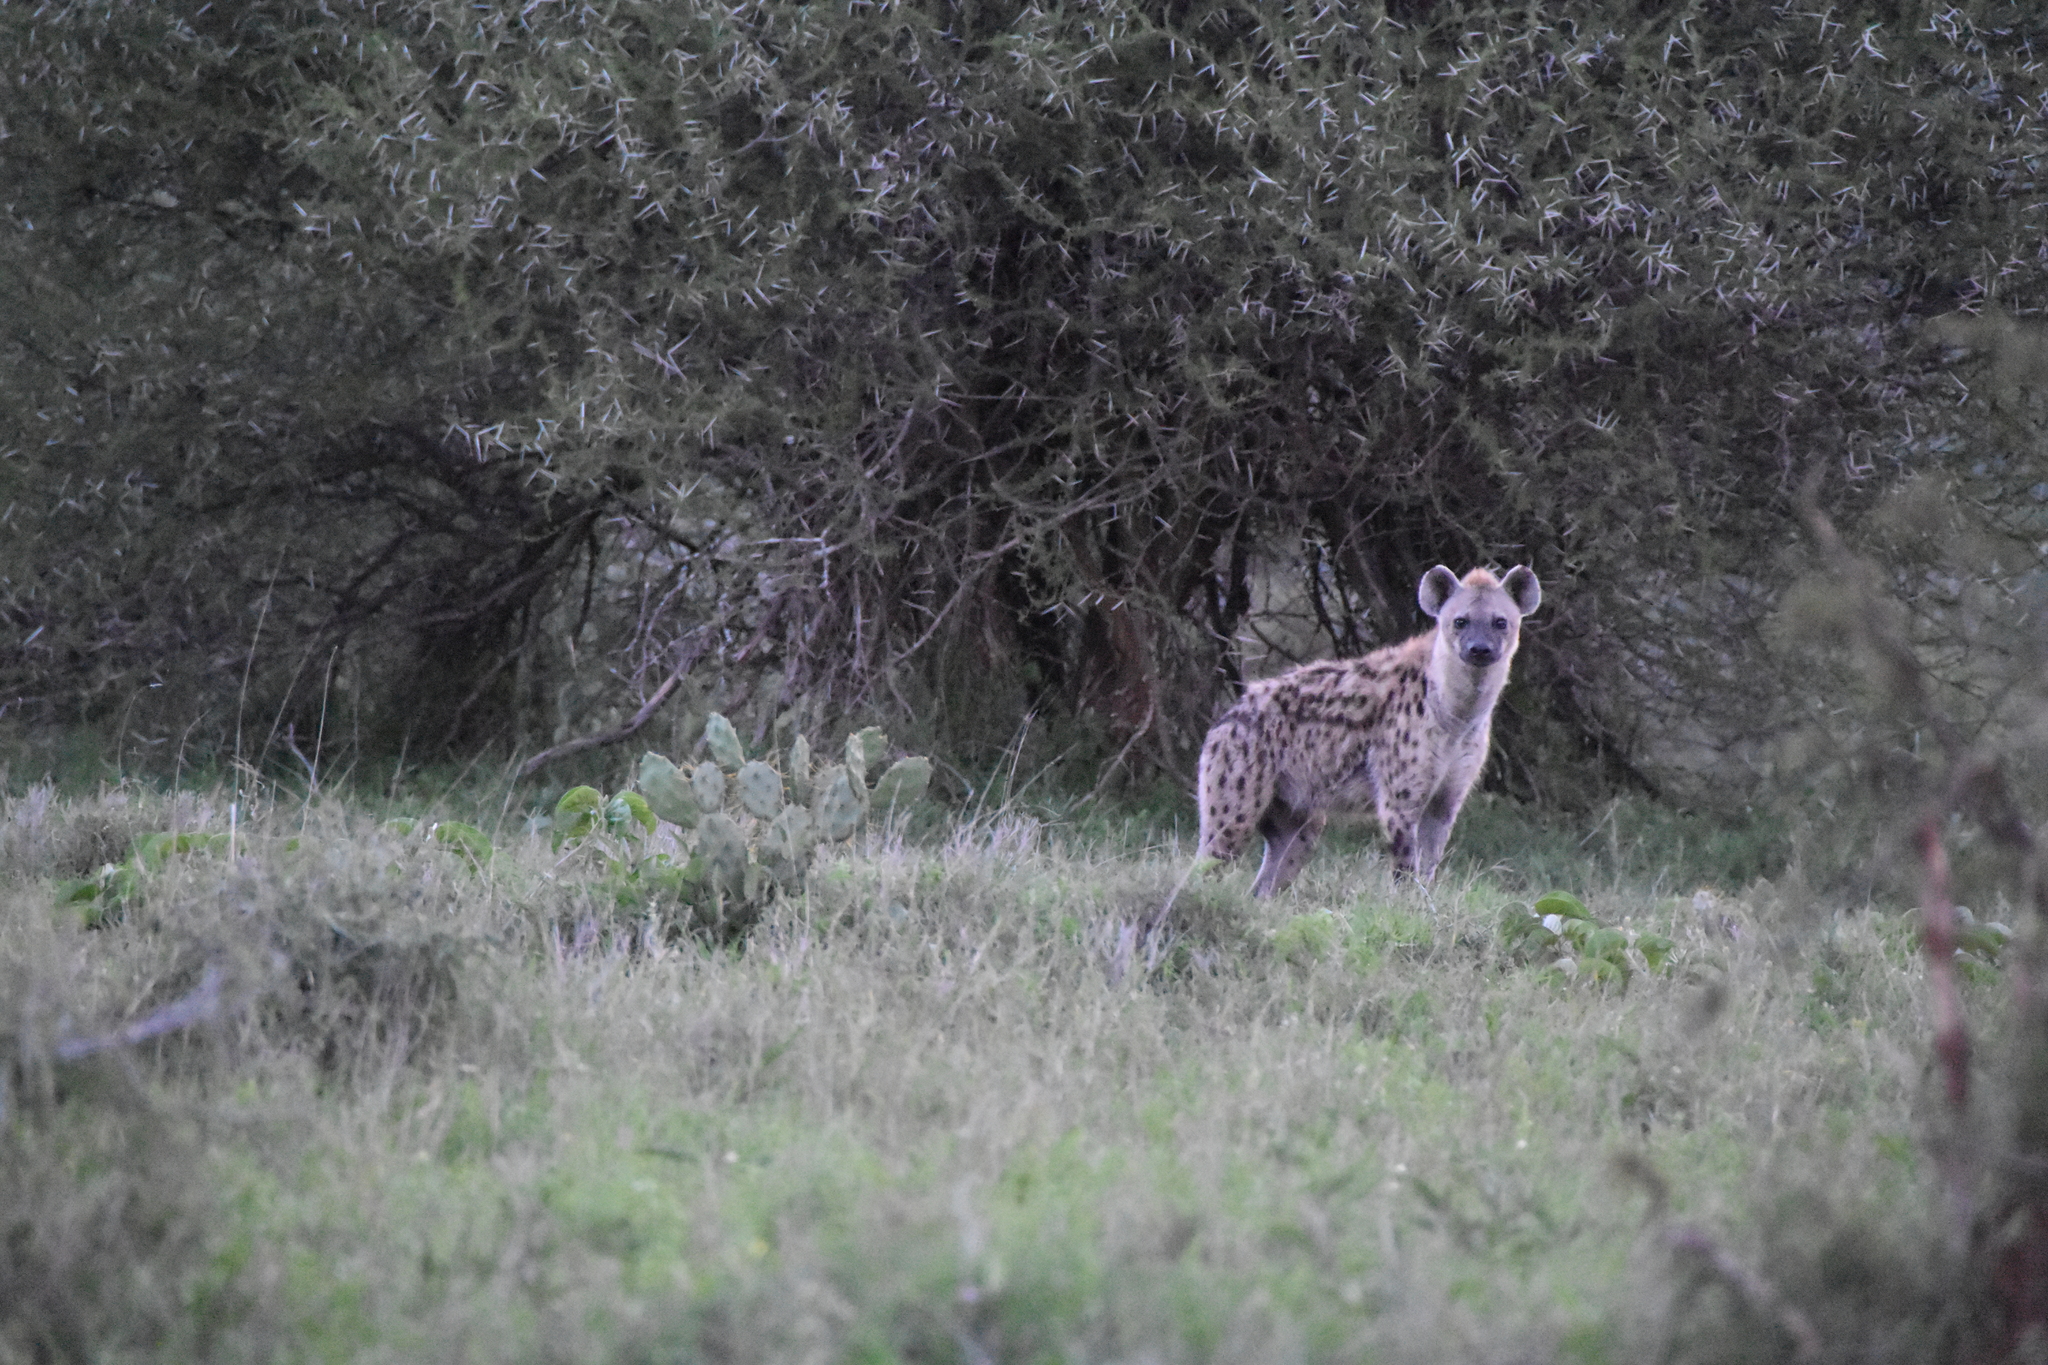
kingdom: Animalia
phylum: Chordata
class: Mammalia
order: Carnivora
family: Hyaenidae
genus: Crocuta
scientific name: Crocuta crocuta
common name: Spotted hyaena
